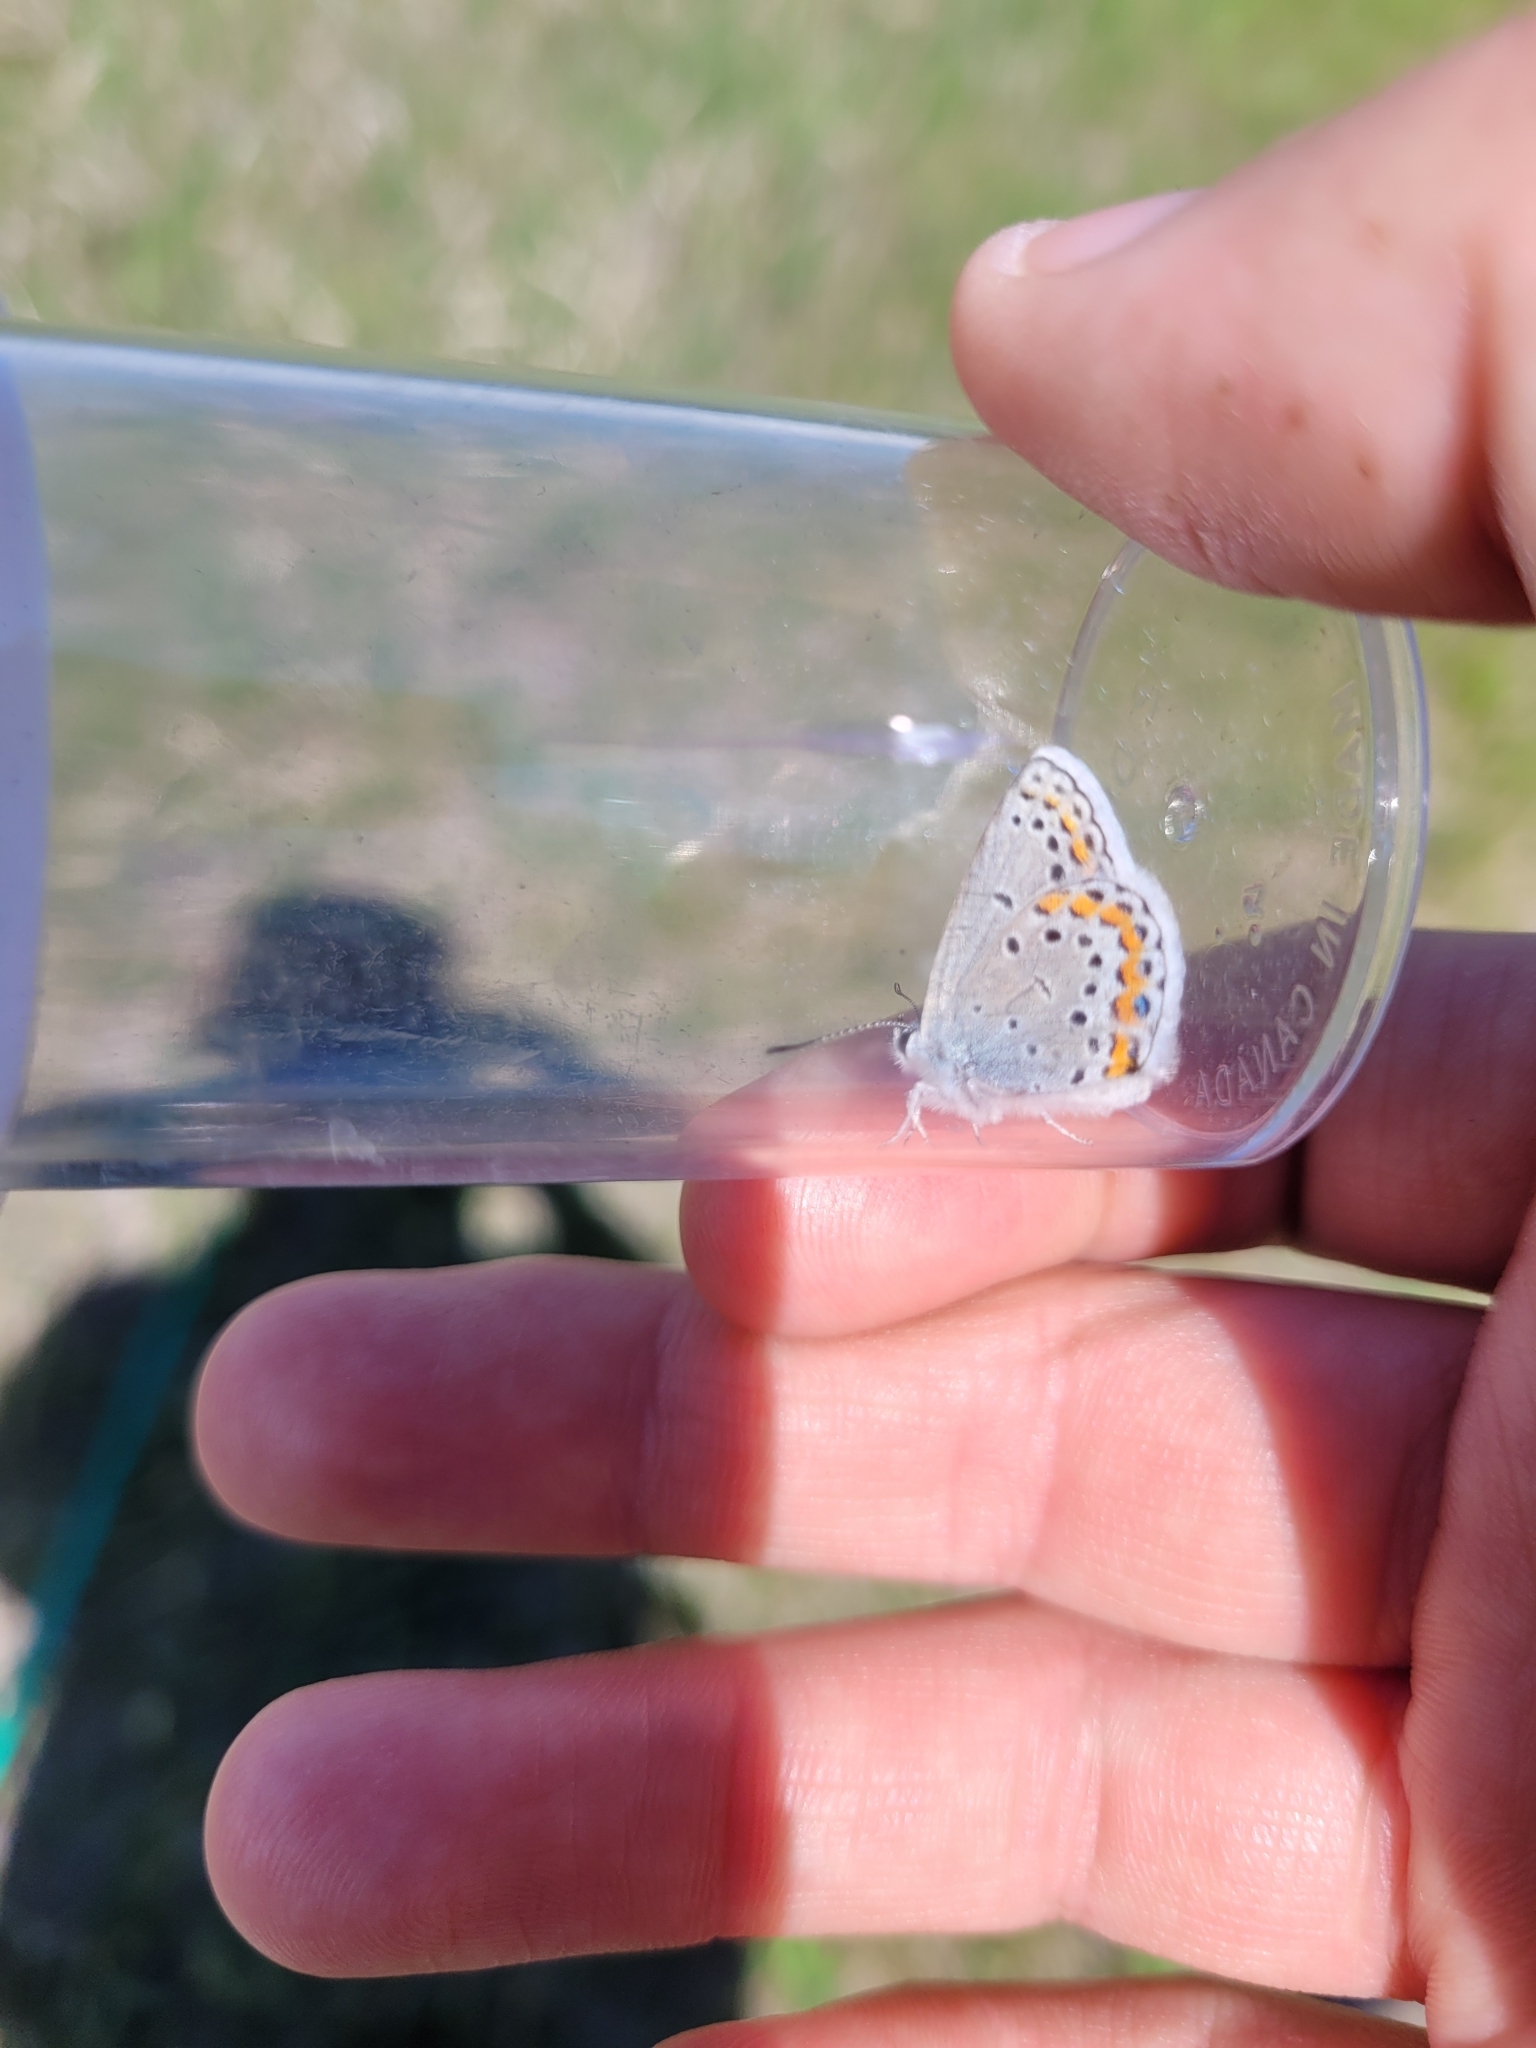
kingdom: Animalia
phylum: Arthropoda
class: Insecta
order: Lepidoptera
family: Lycaenidae
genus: Lycaeides
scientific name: Lycaeides melissa
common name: Melissa blue
